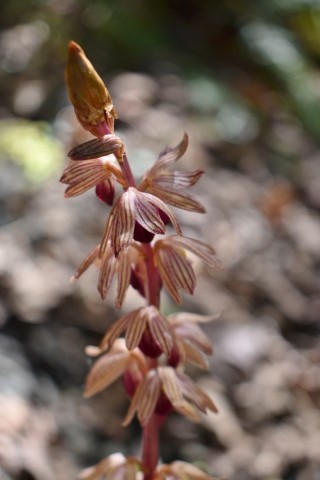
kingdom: Plantae
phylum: Tracheophyta
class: Liliopsida
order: Asparagales
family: Orchidaceae
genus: Corallorhiza
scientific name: Corallorhiza striata
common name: Hooded coralroot
